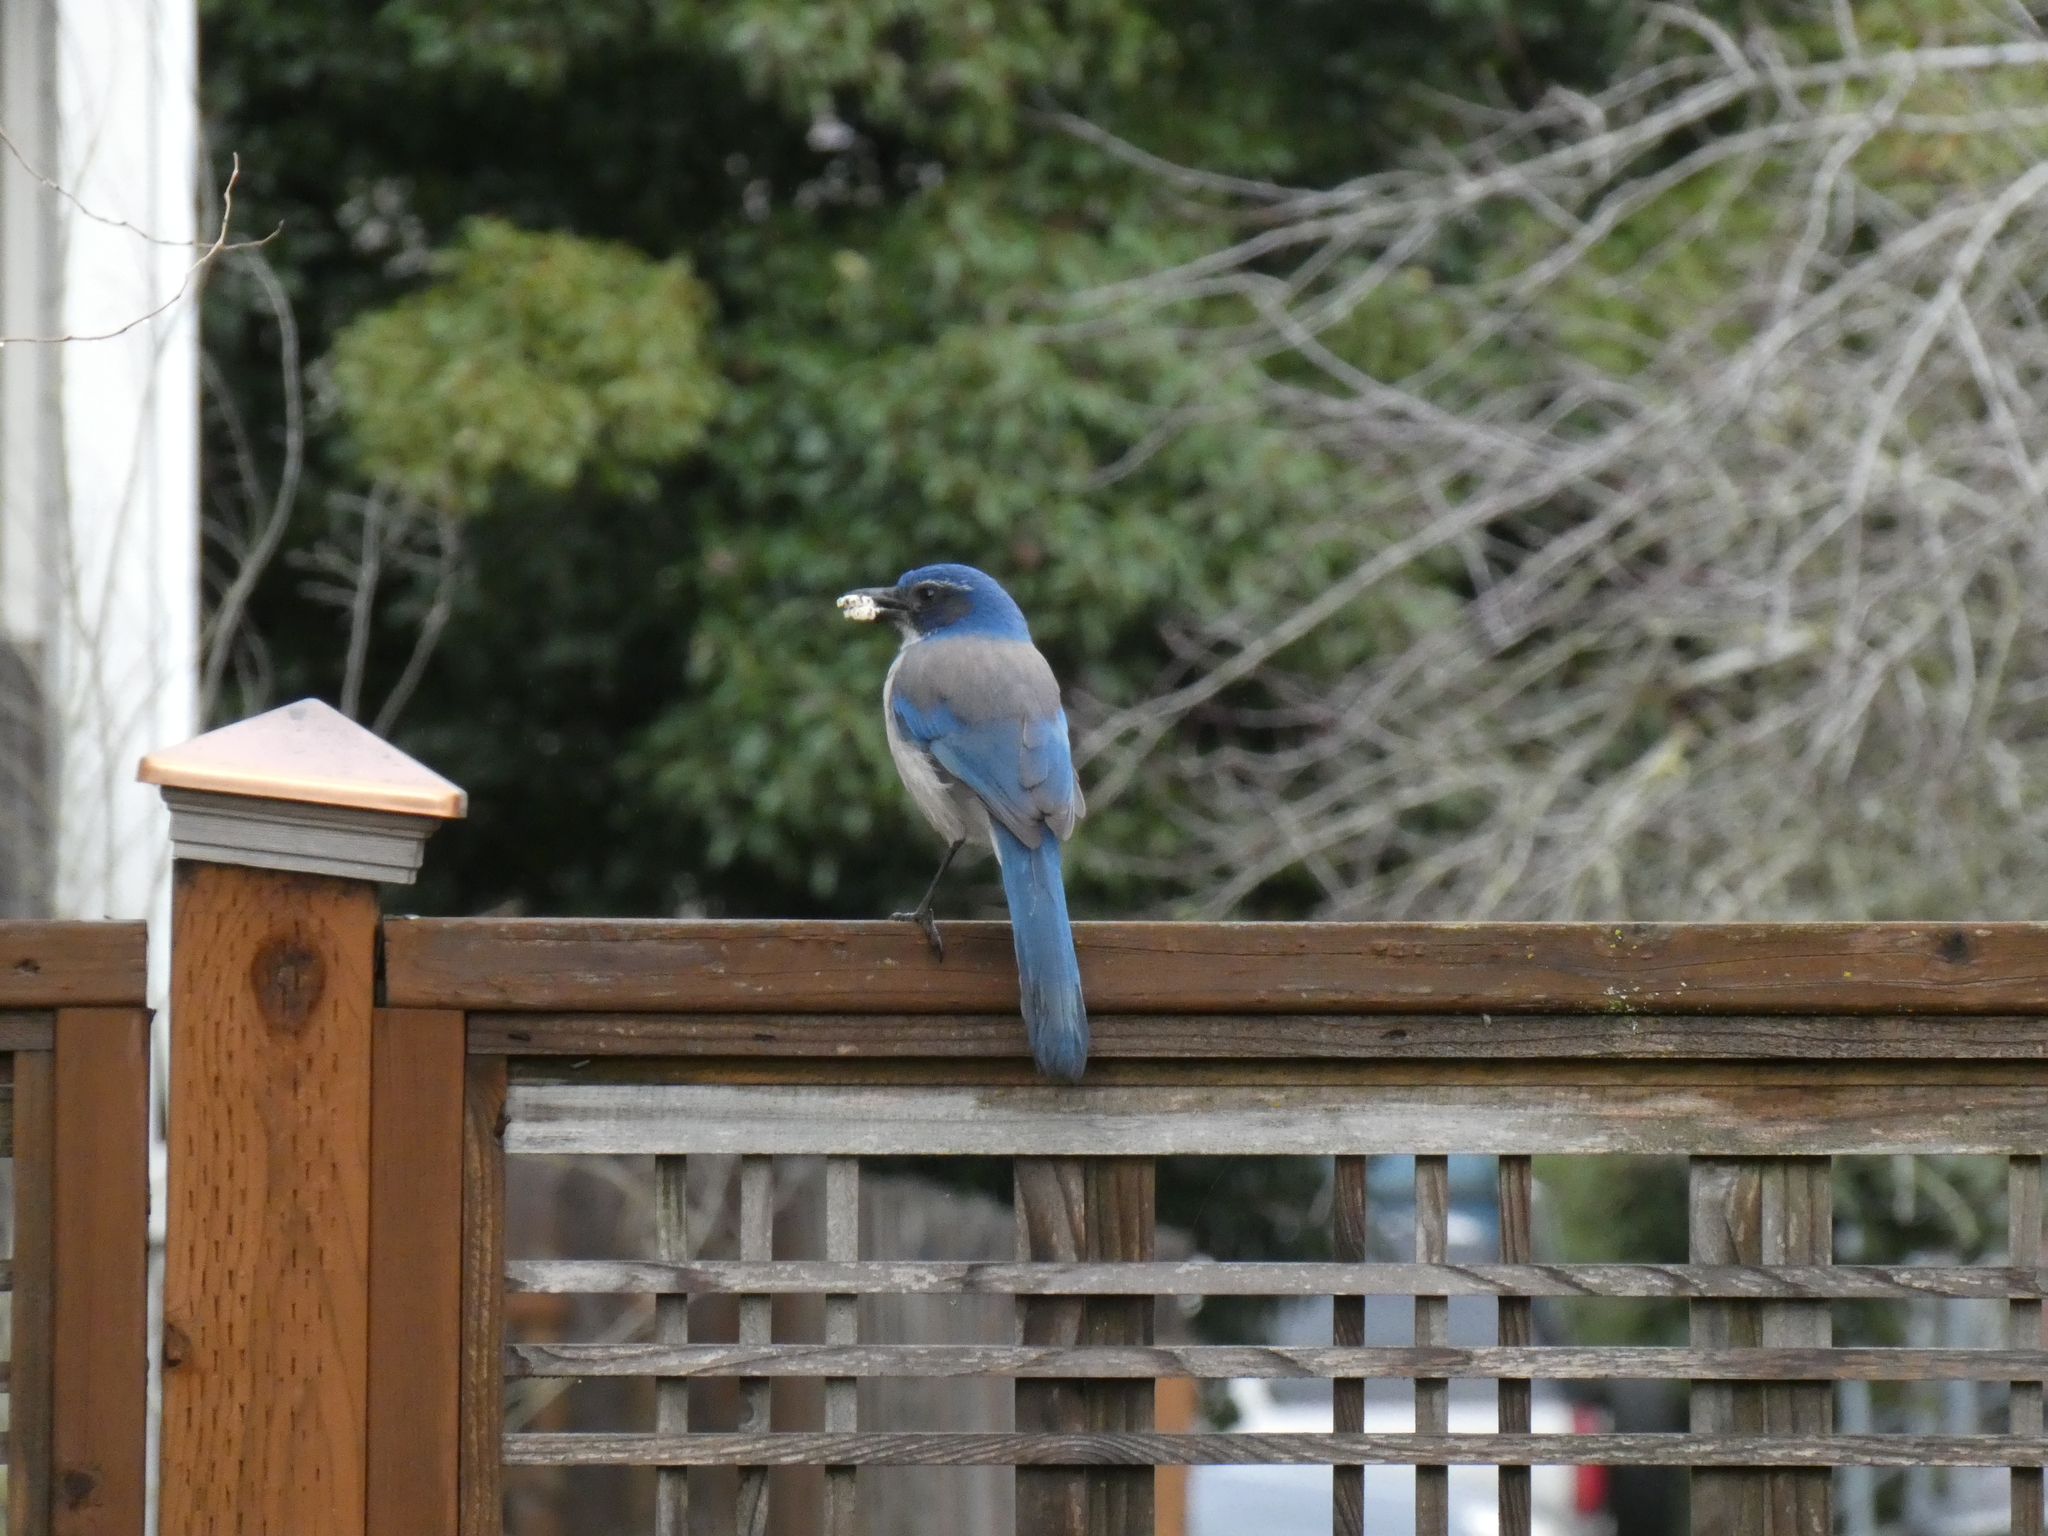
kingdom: Animalia
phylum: Chordata
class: Aves
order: Passeriformes
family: Corvidae
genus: Aphelocoma
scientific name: Aphelocoma californica
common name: California scrub-jay
